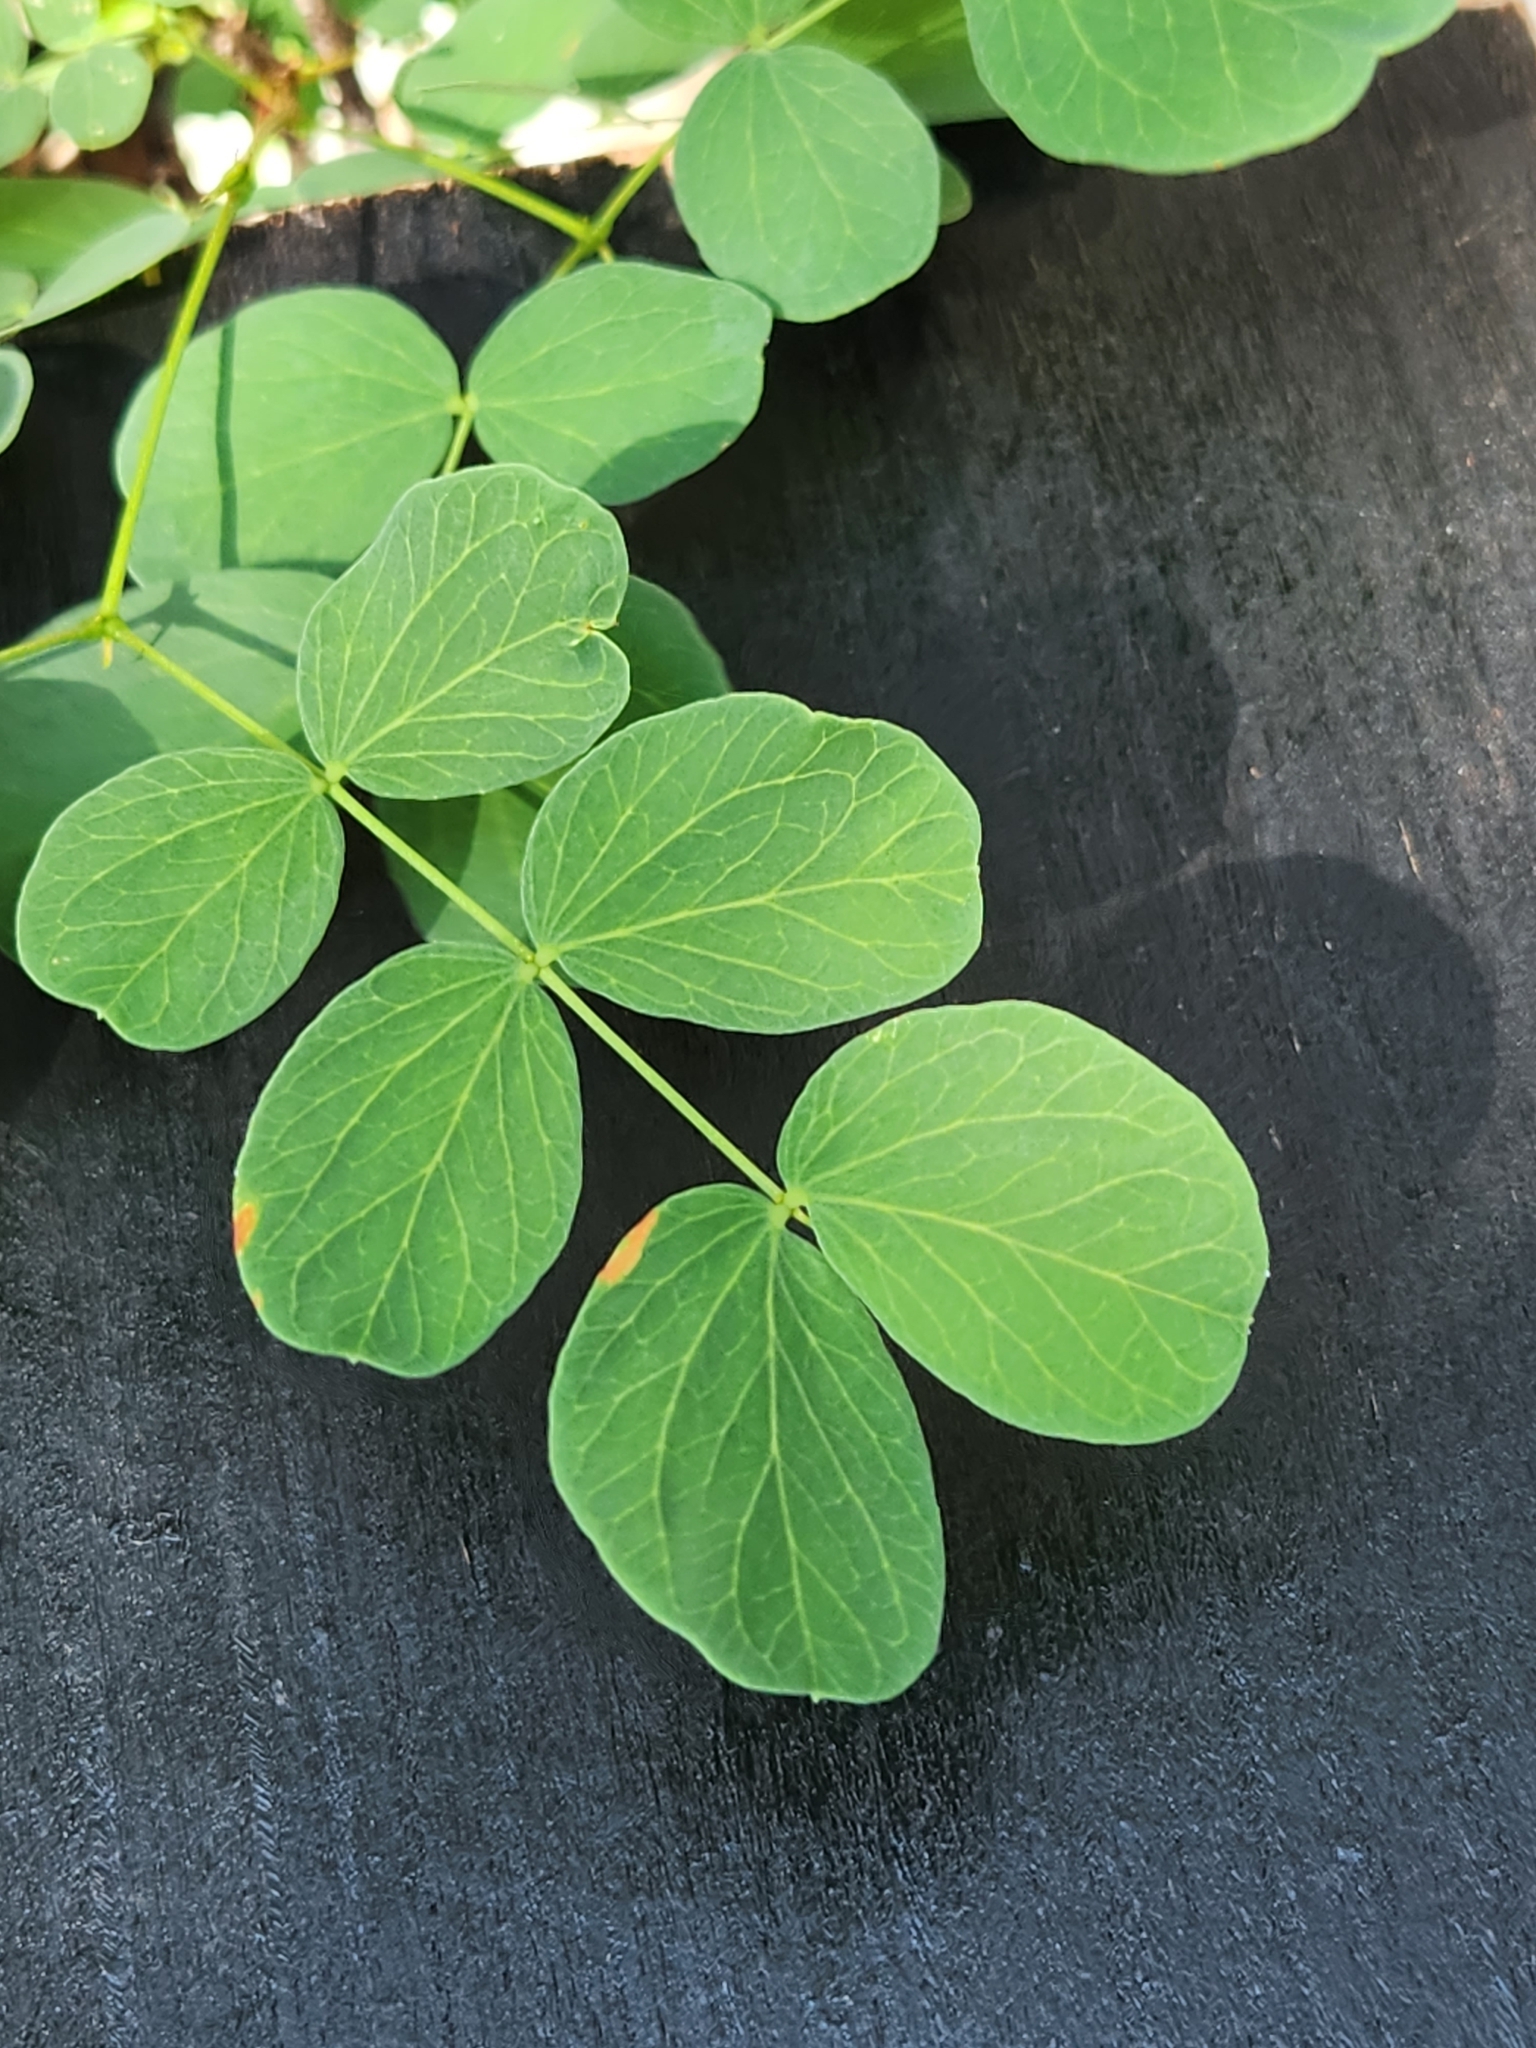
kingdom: Plantae
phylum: Tracheophyta
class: Magnoliopsida
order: Fabales
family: Fabaceae
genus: Leucaena
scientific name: Leucaena retusa
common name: Littleleaf leadtree
